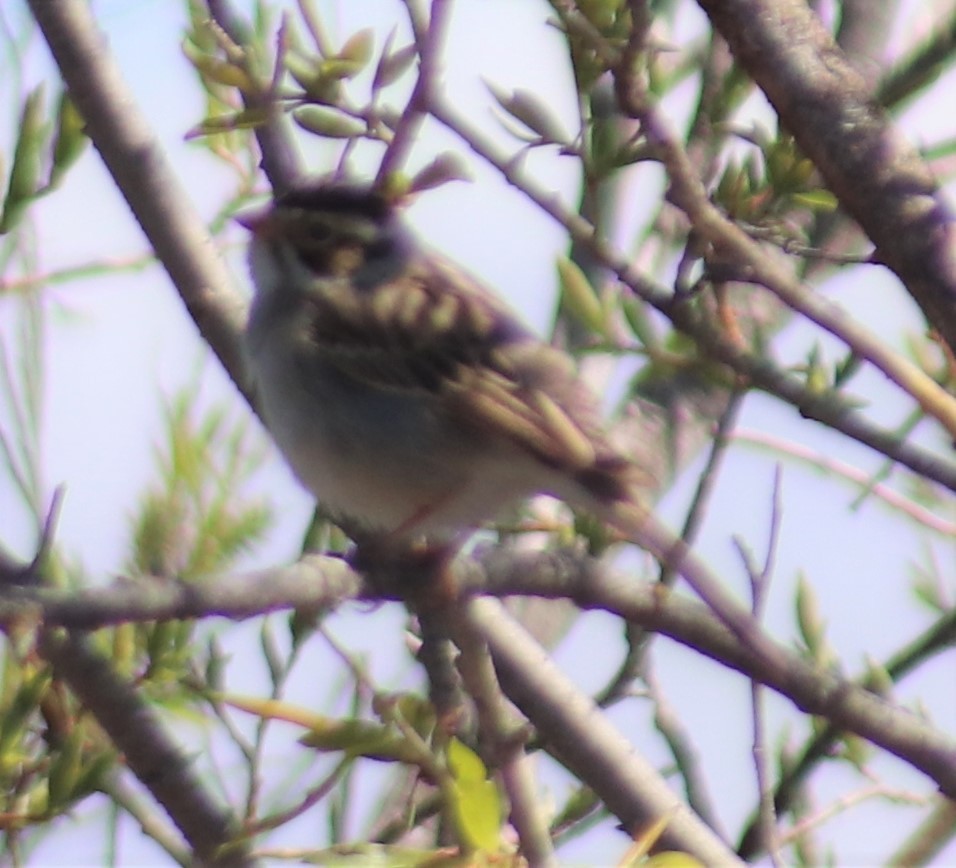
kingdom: Animalia
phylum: Chordata
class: Aves
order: Passeriformes
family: Passerellidae
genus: Spizella
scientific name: Spizella pallida
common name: Clay-colored sparrow
